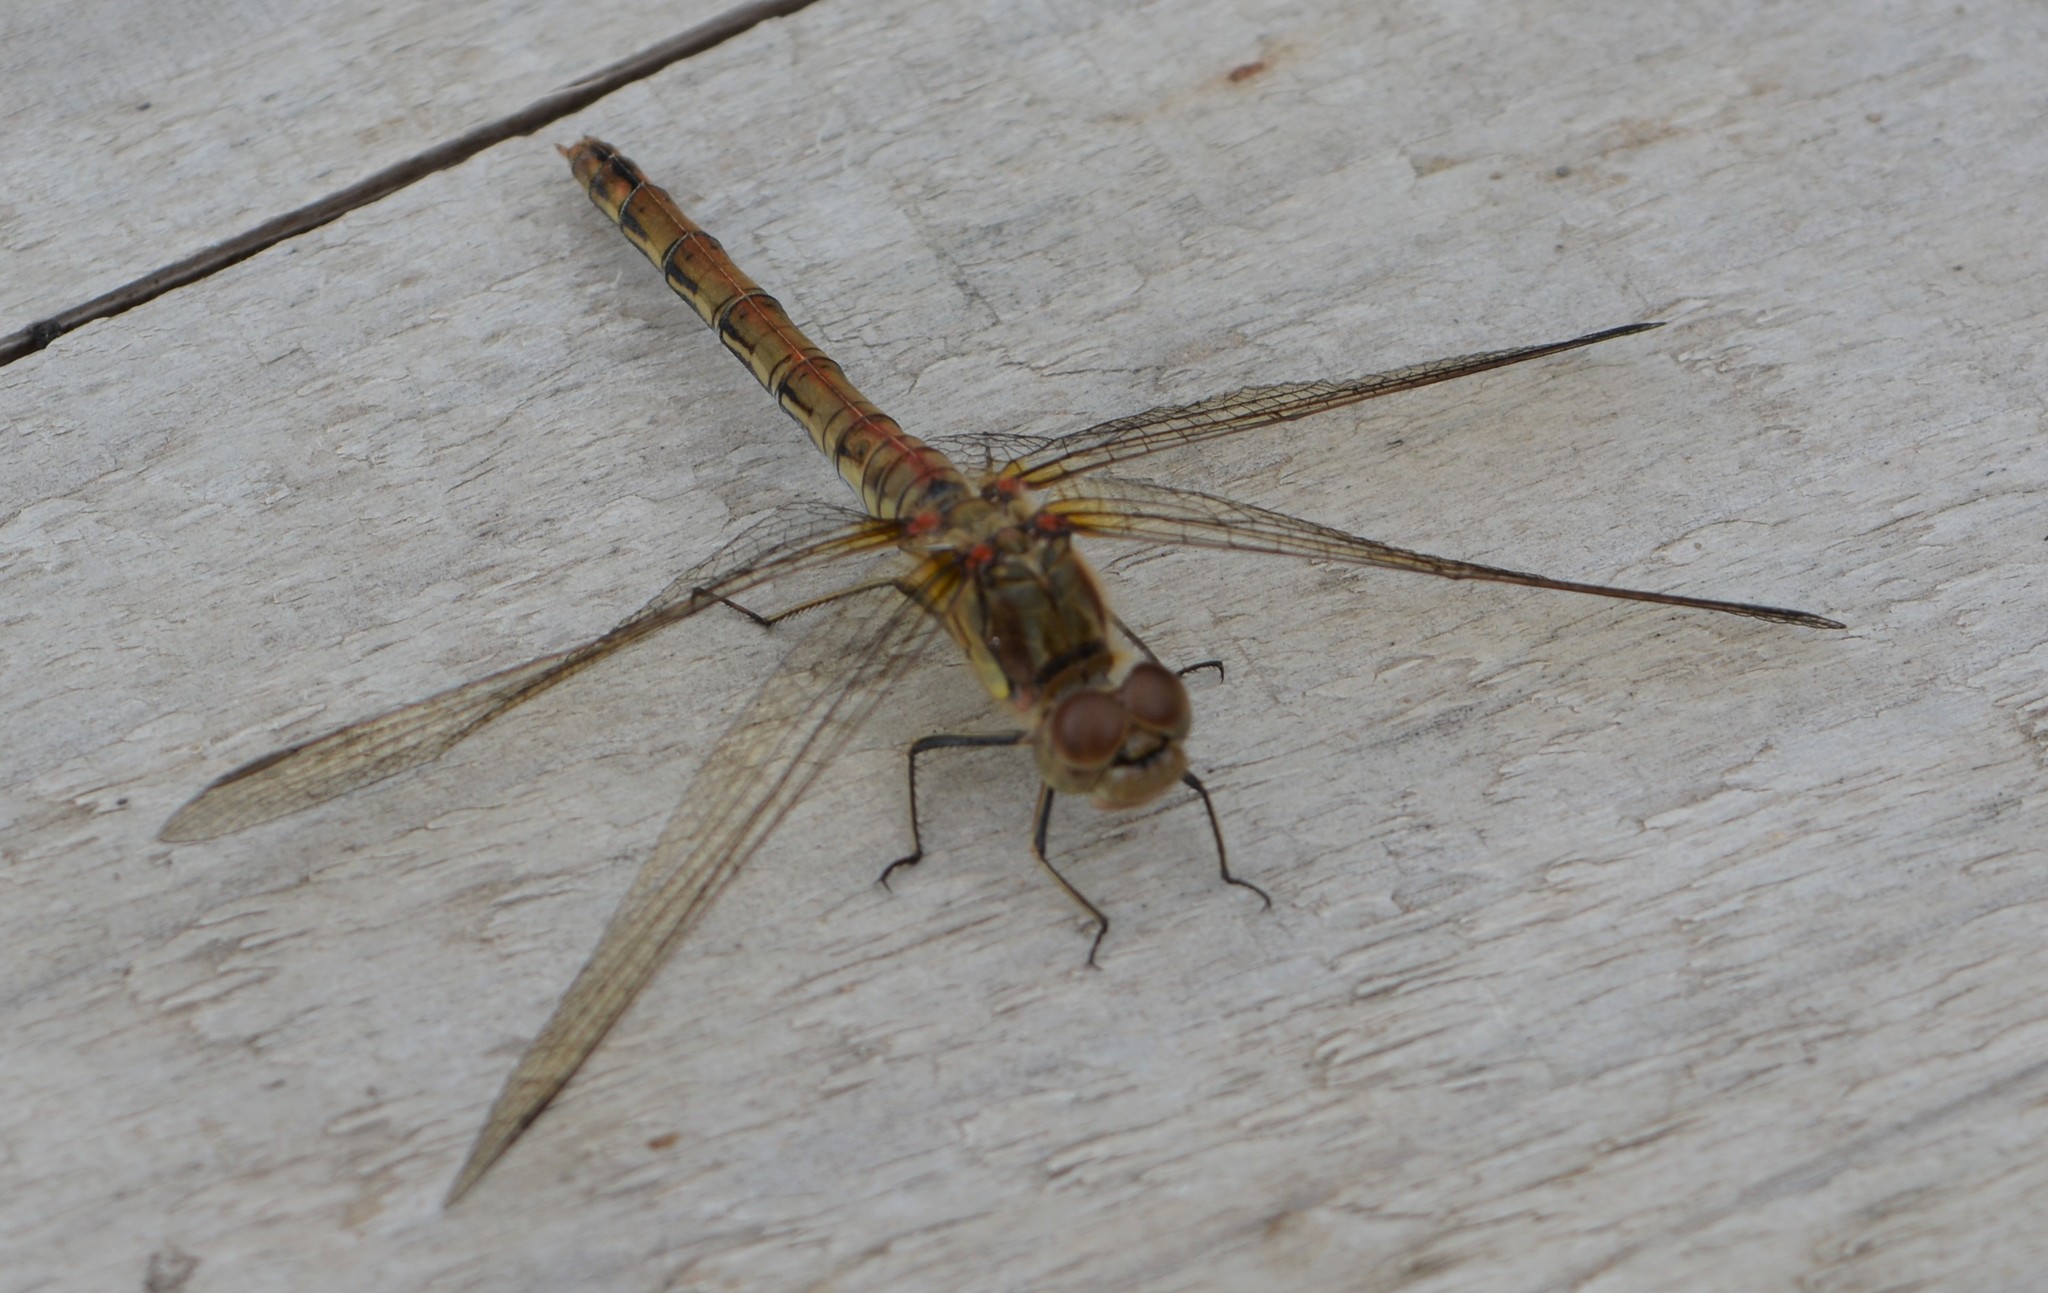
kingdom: Animalia
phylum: Arthropoda
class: Insecta
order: Odonata
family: Libellulidae
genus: Sympetrum
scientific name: Sympetrum striolatum
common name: Common darter
